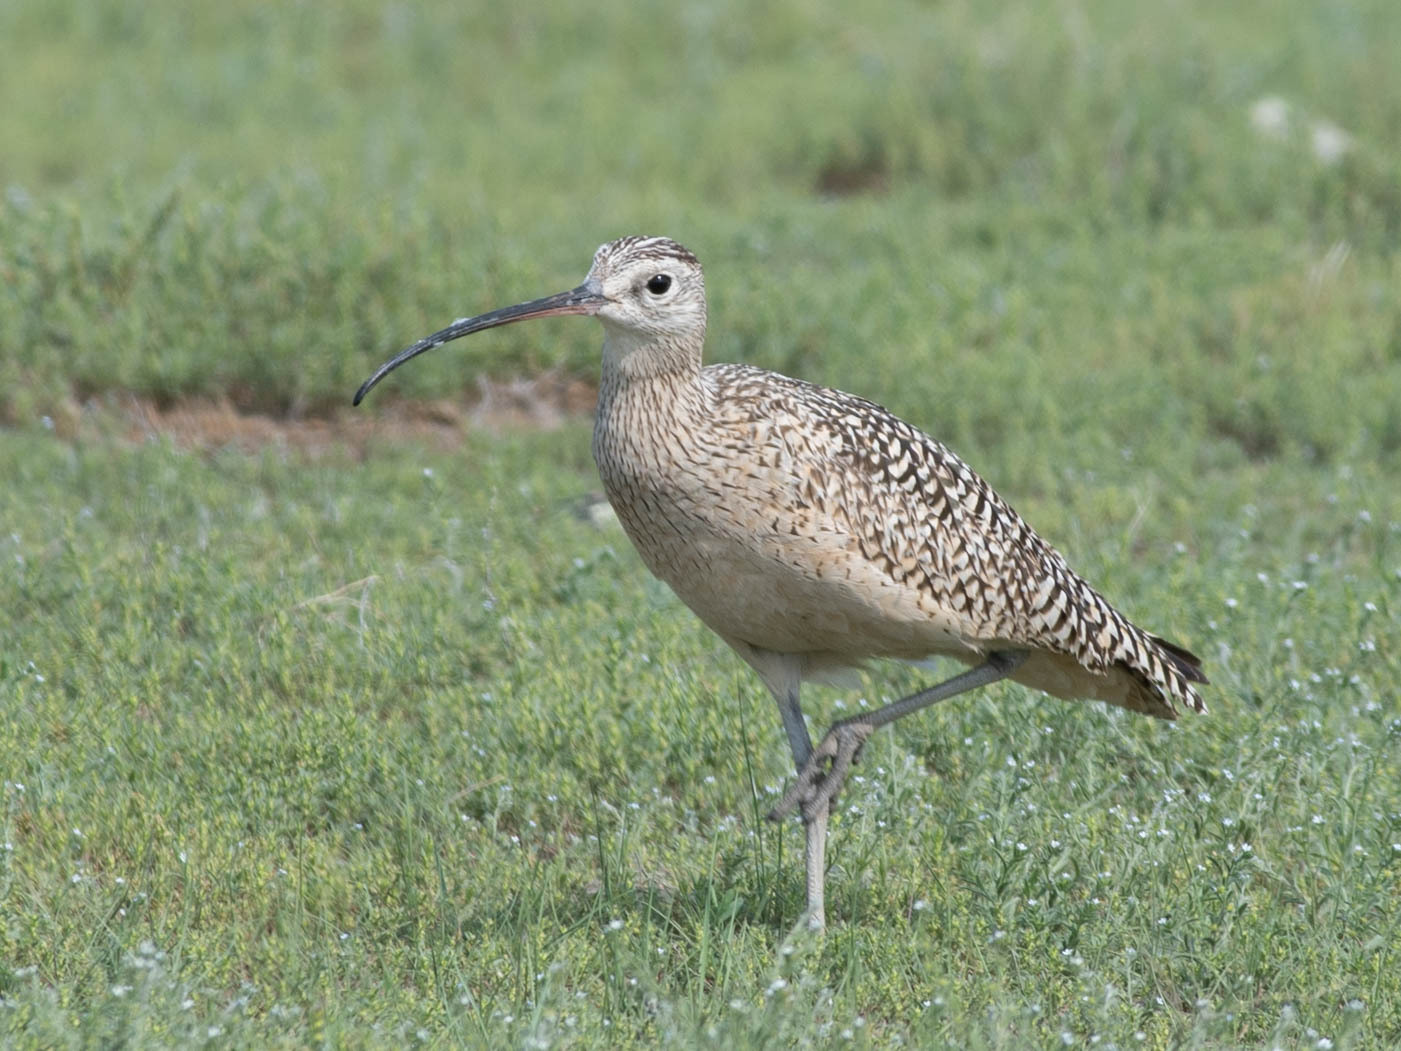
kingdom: Animalia
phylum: Chordata
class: Aves
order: Charadriiformes
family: Scolopacidae
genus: Numenius
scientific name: Numenius americanus
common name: Long-billed curlew
